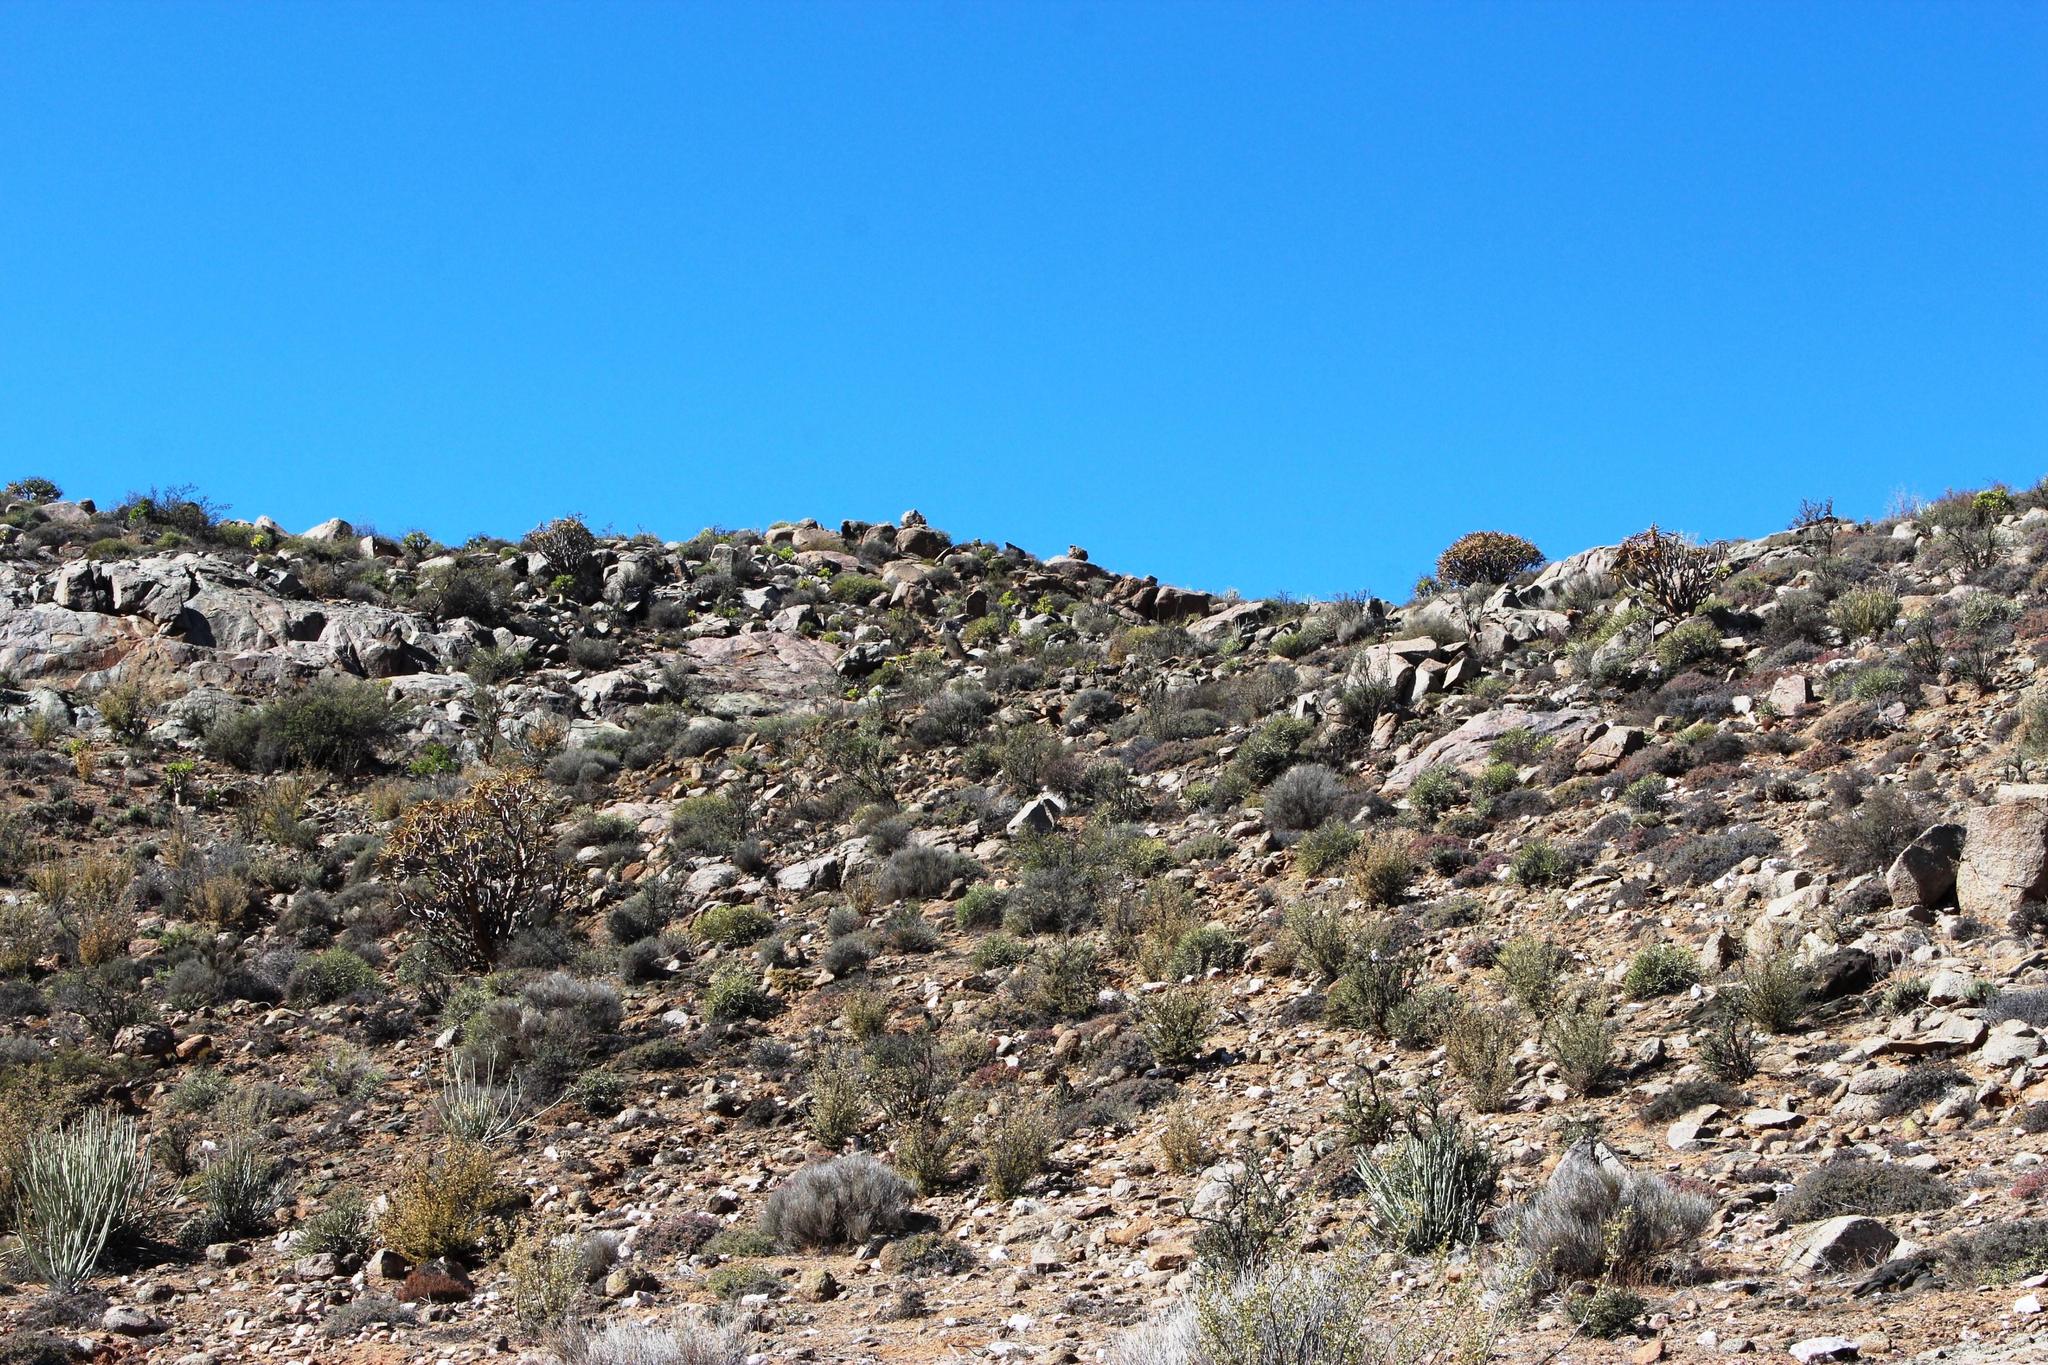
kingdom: Plantae
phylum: Tracheophyta
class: Liliopsida
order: Asparagales
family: Asphodelaceae
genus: Aloidendron
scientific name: Aloidendron ramosissimum
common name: Bush quiver tree
